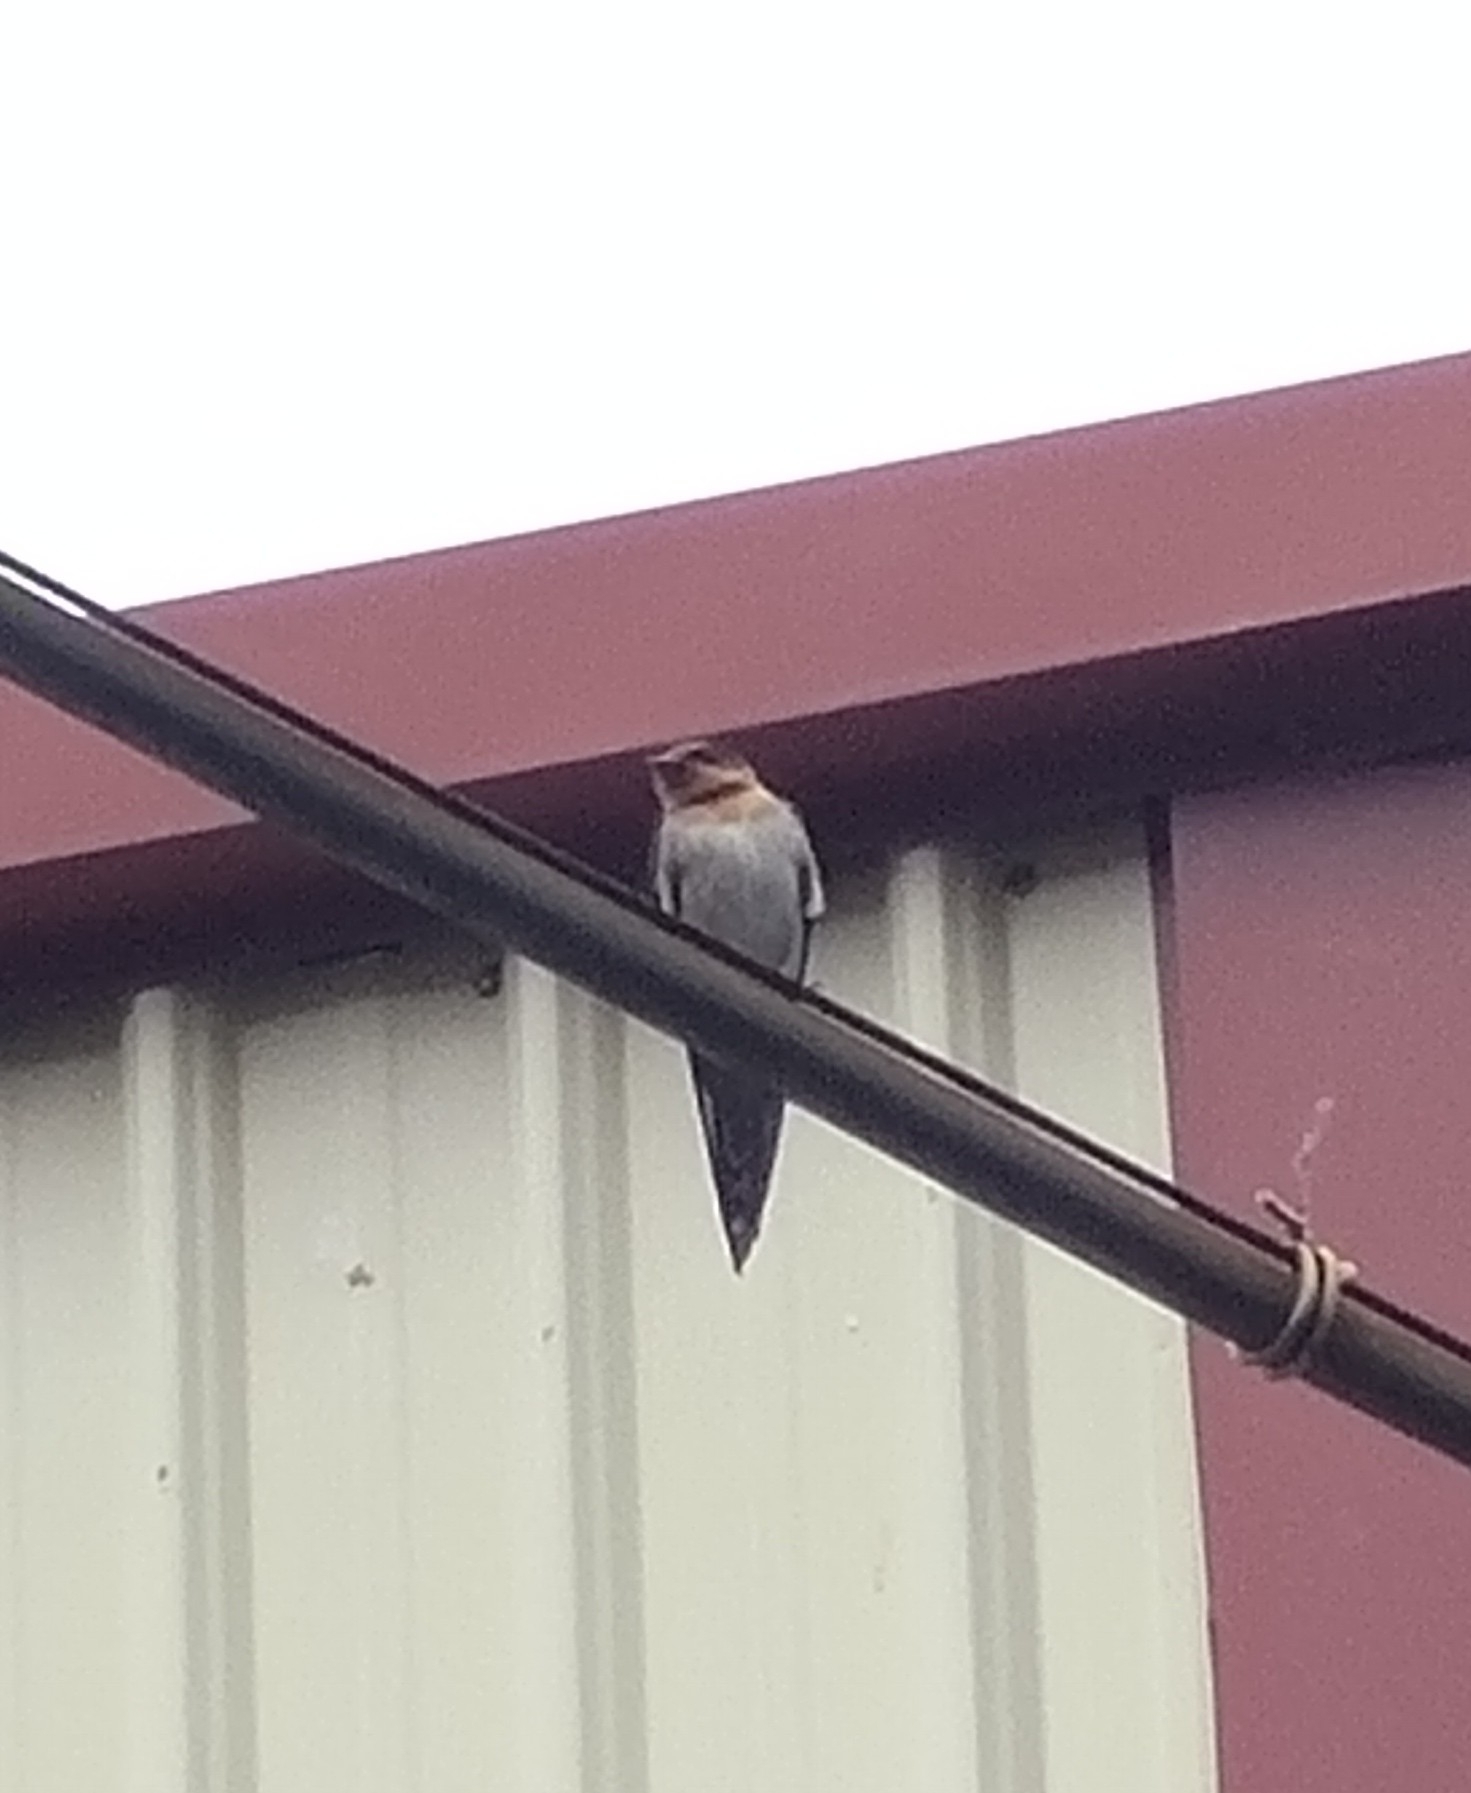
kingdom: Animalia
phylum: Chordata
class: Aves
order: Passeriformes
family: Hirundinidae
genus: Hirundo
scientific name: Hirundo tahitica
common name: Pacific swallow
